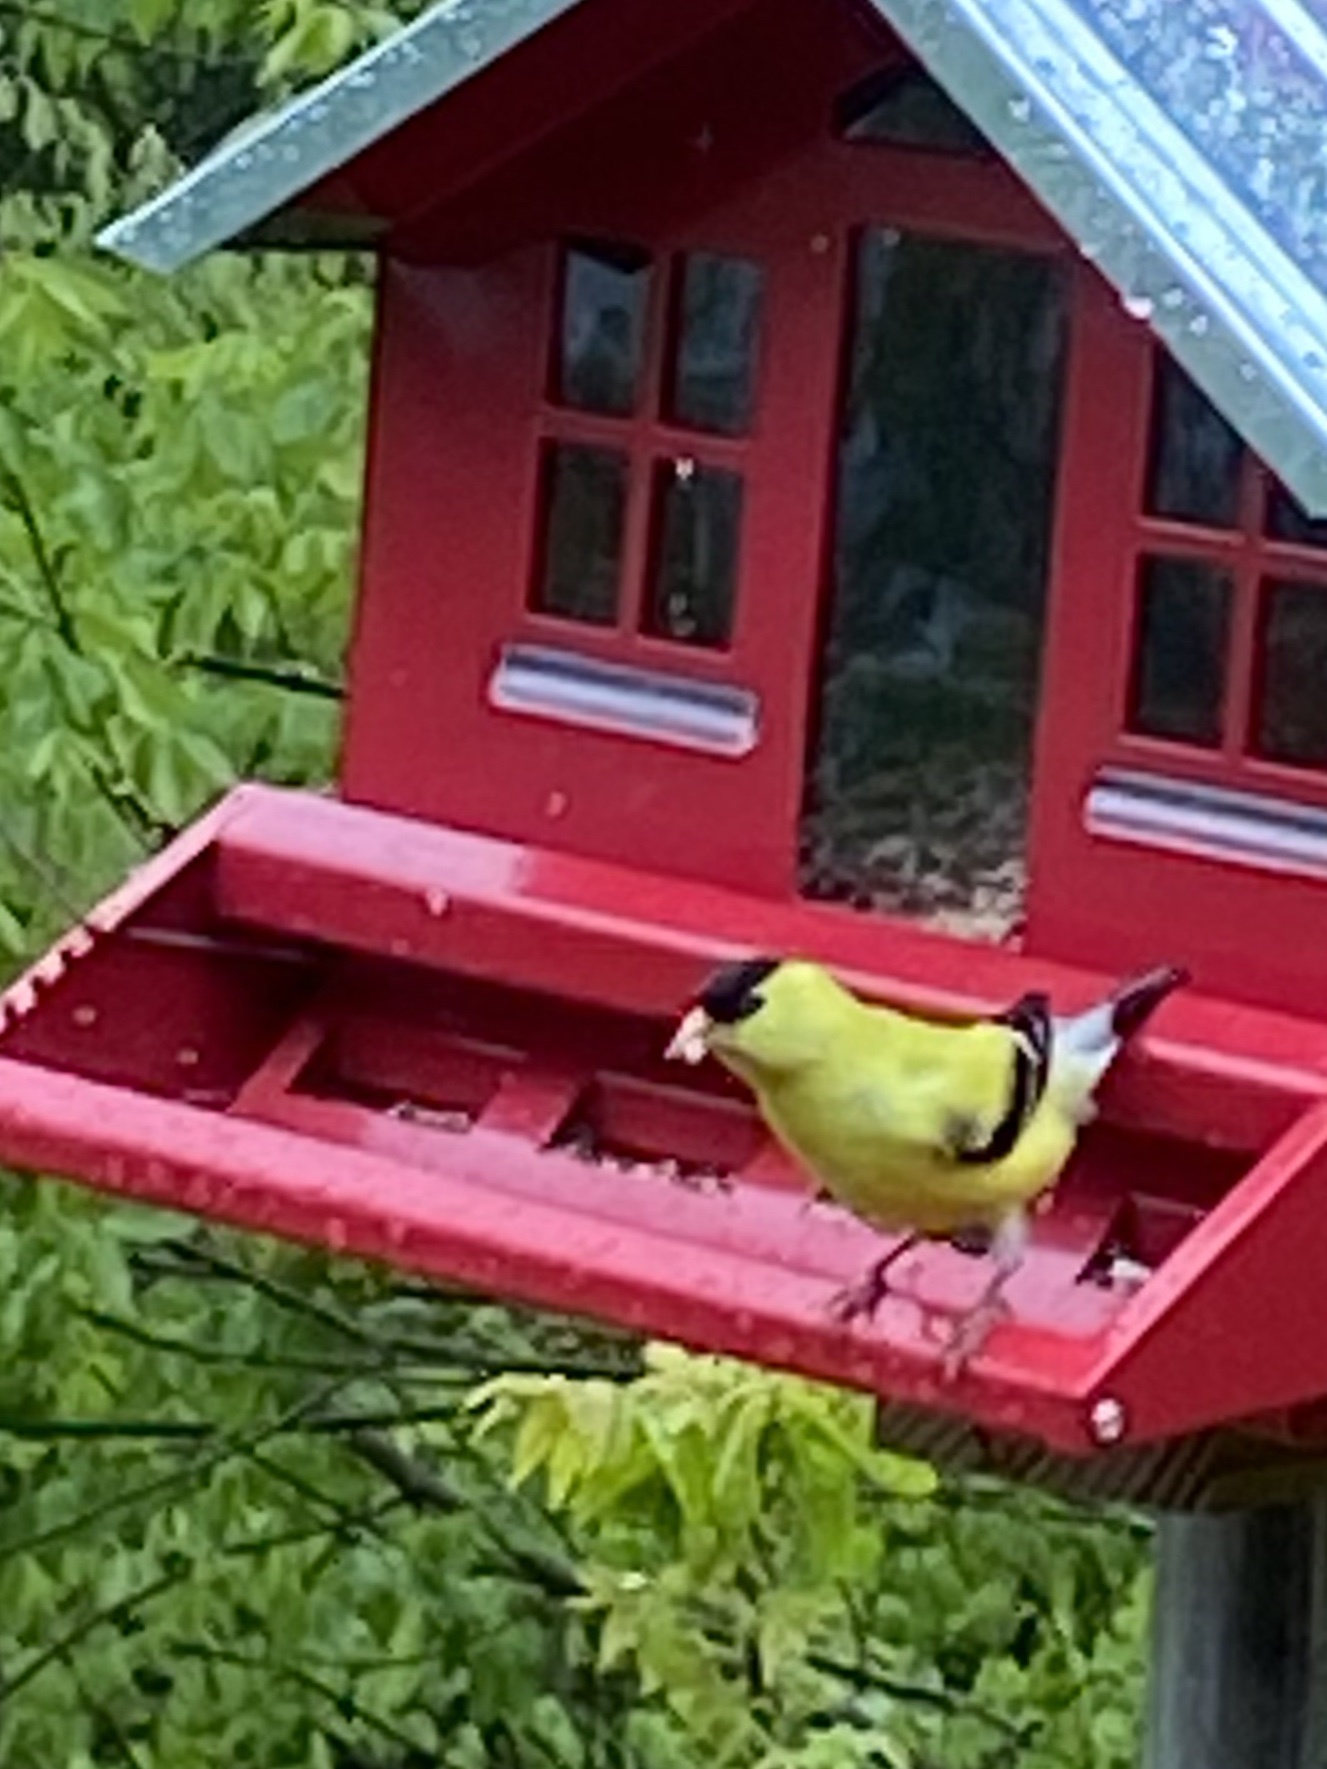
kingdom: Animalia
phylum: Chordata
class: Aves
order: Passeriformes
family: Fringillidae
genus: Spinus
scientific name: Spinus tristis
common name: American goldfinch
